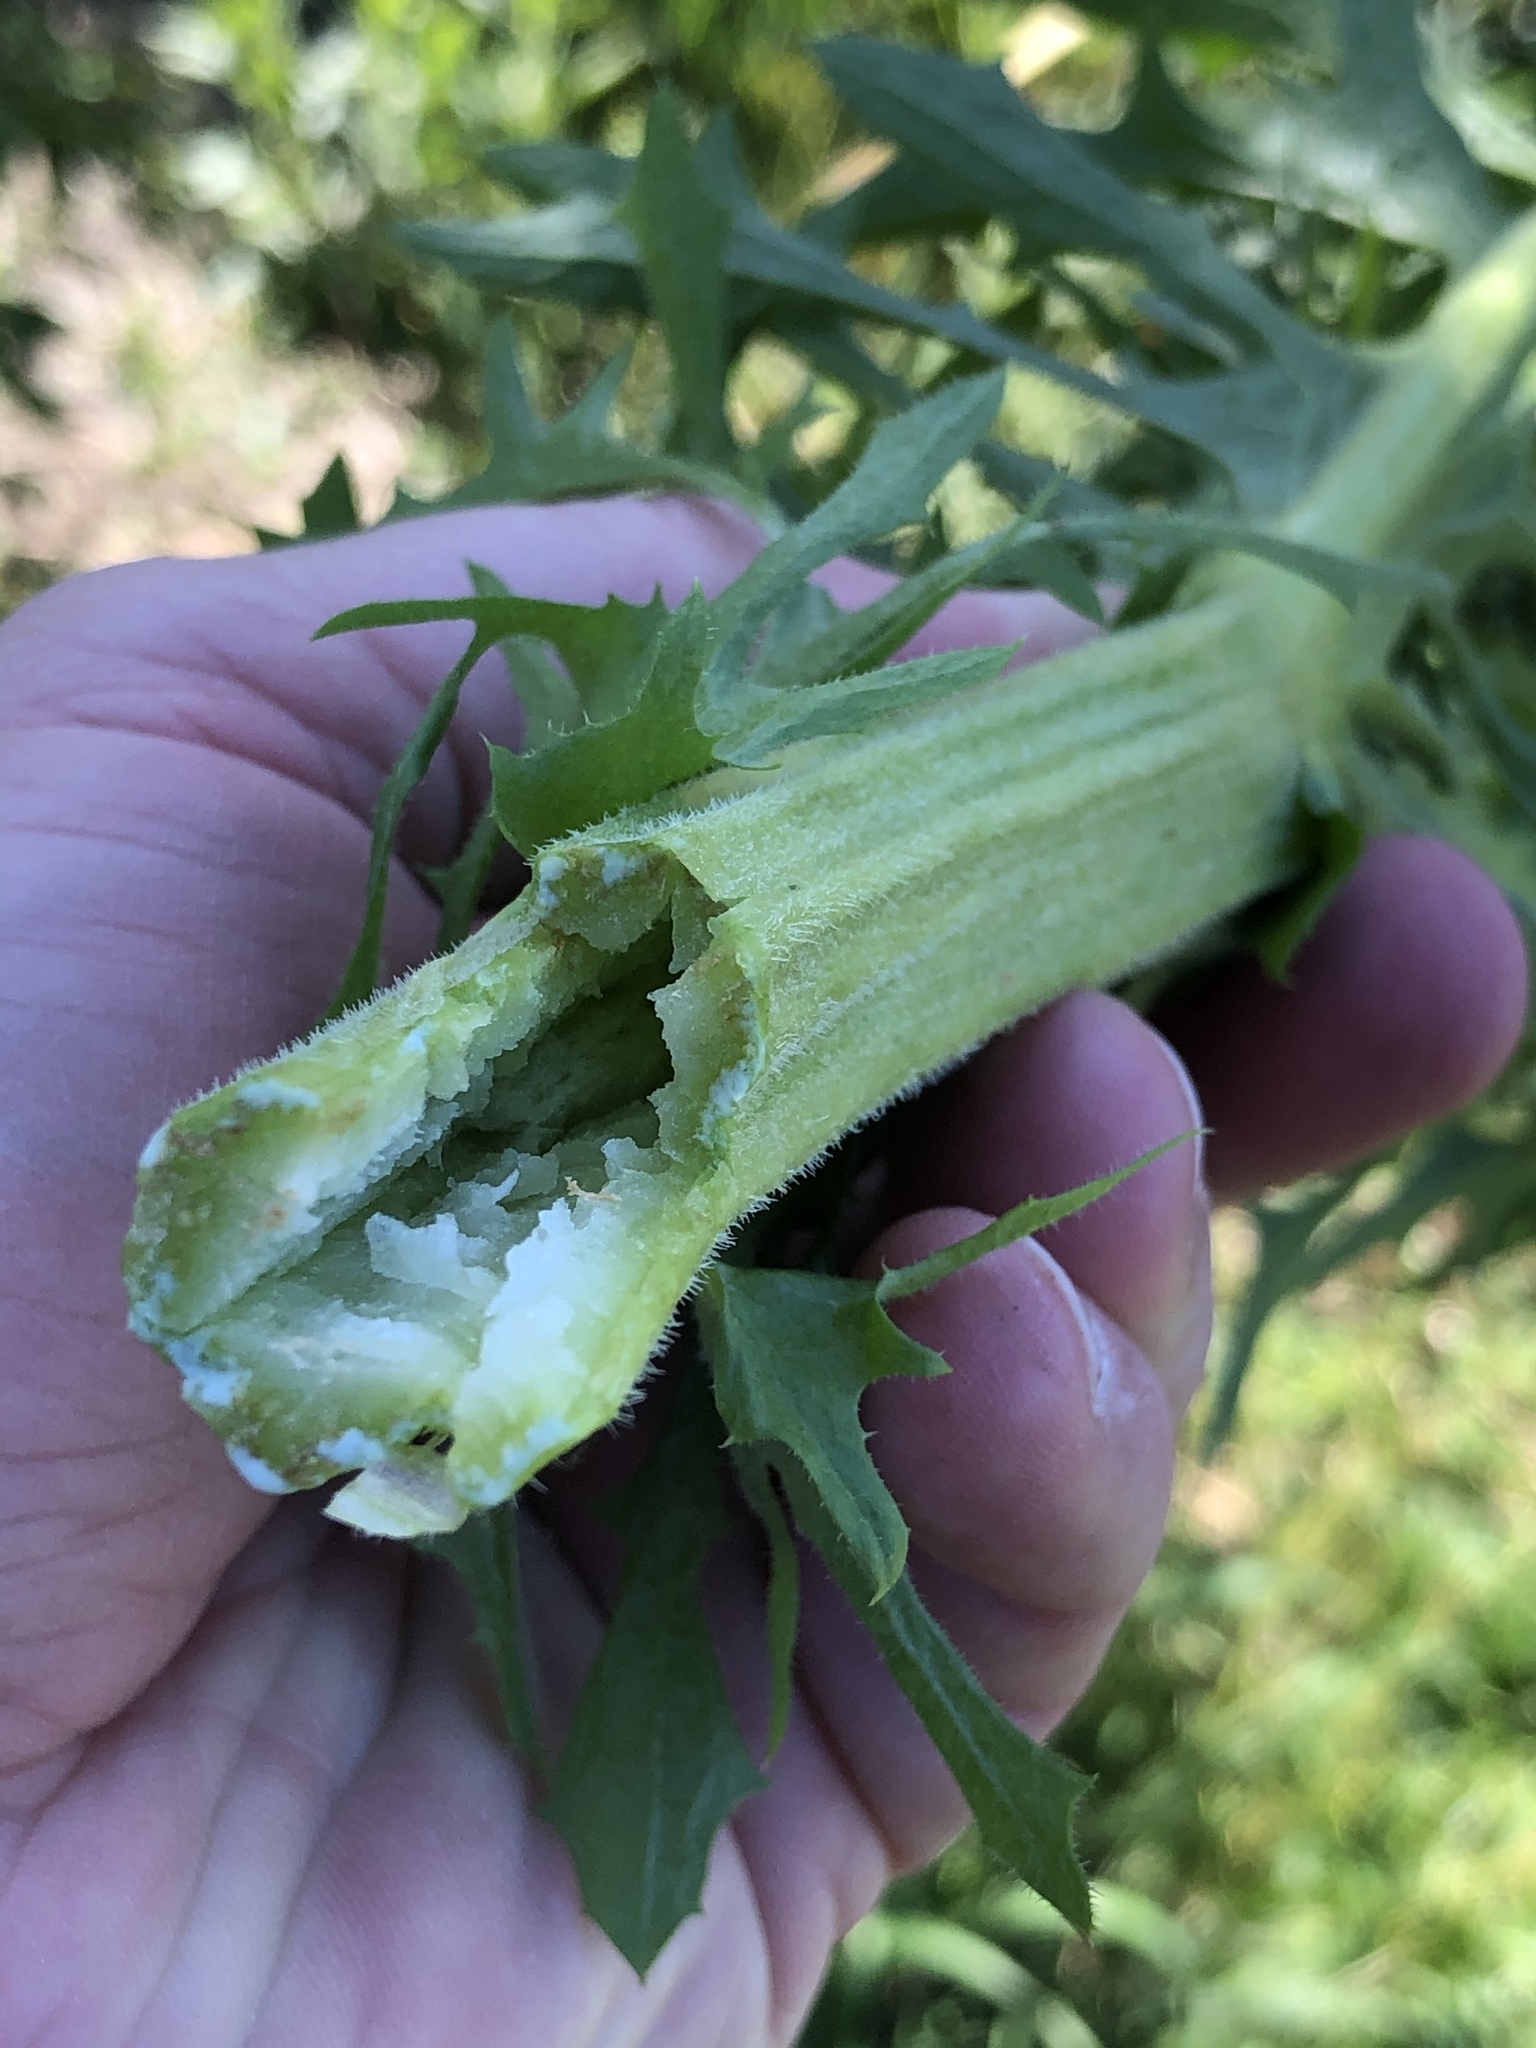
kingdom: Plantae
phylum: Tracheophyta
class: Magnoliopsida
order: Asterales
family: Asteraceae
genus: Cynara
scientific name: Cynara cardunculus
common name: Globe artichoke
